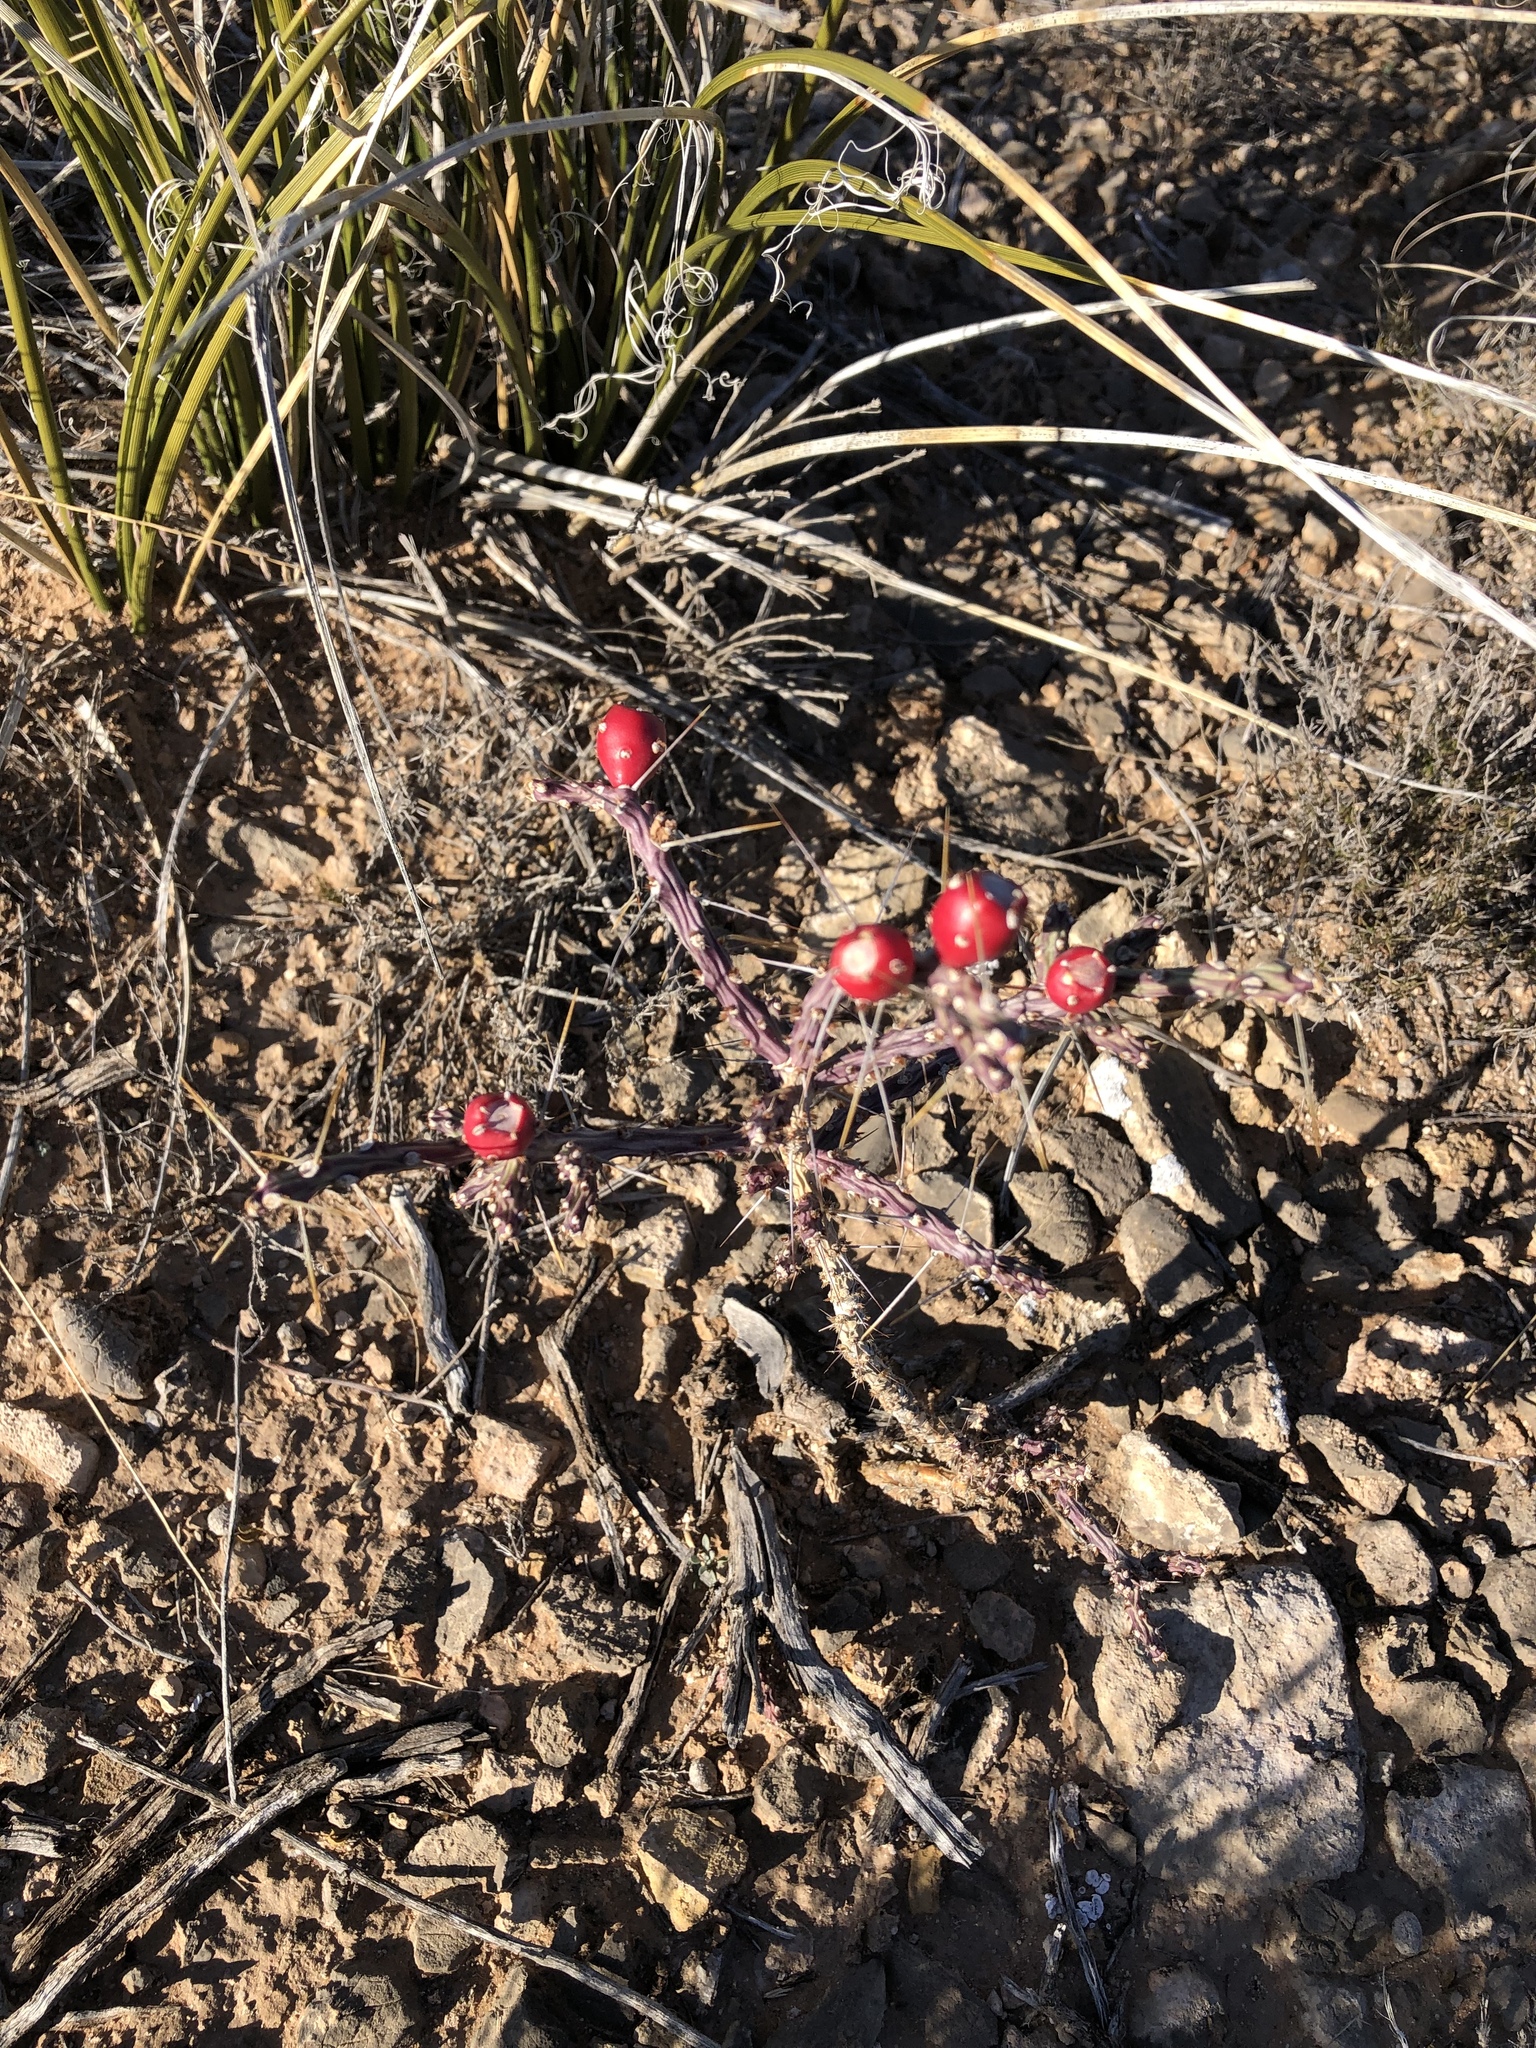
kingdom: Plantae
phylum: Tracheophyta
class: Magnoliopsida
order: Caryophyllales
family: Cactaceae
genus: Cylindropuntia
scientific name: Cylindropuntia leptocaulis
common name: Christmas cactus
